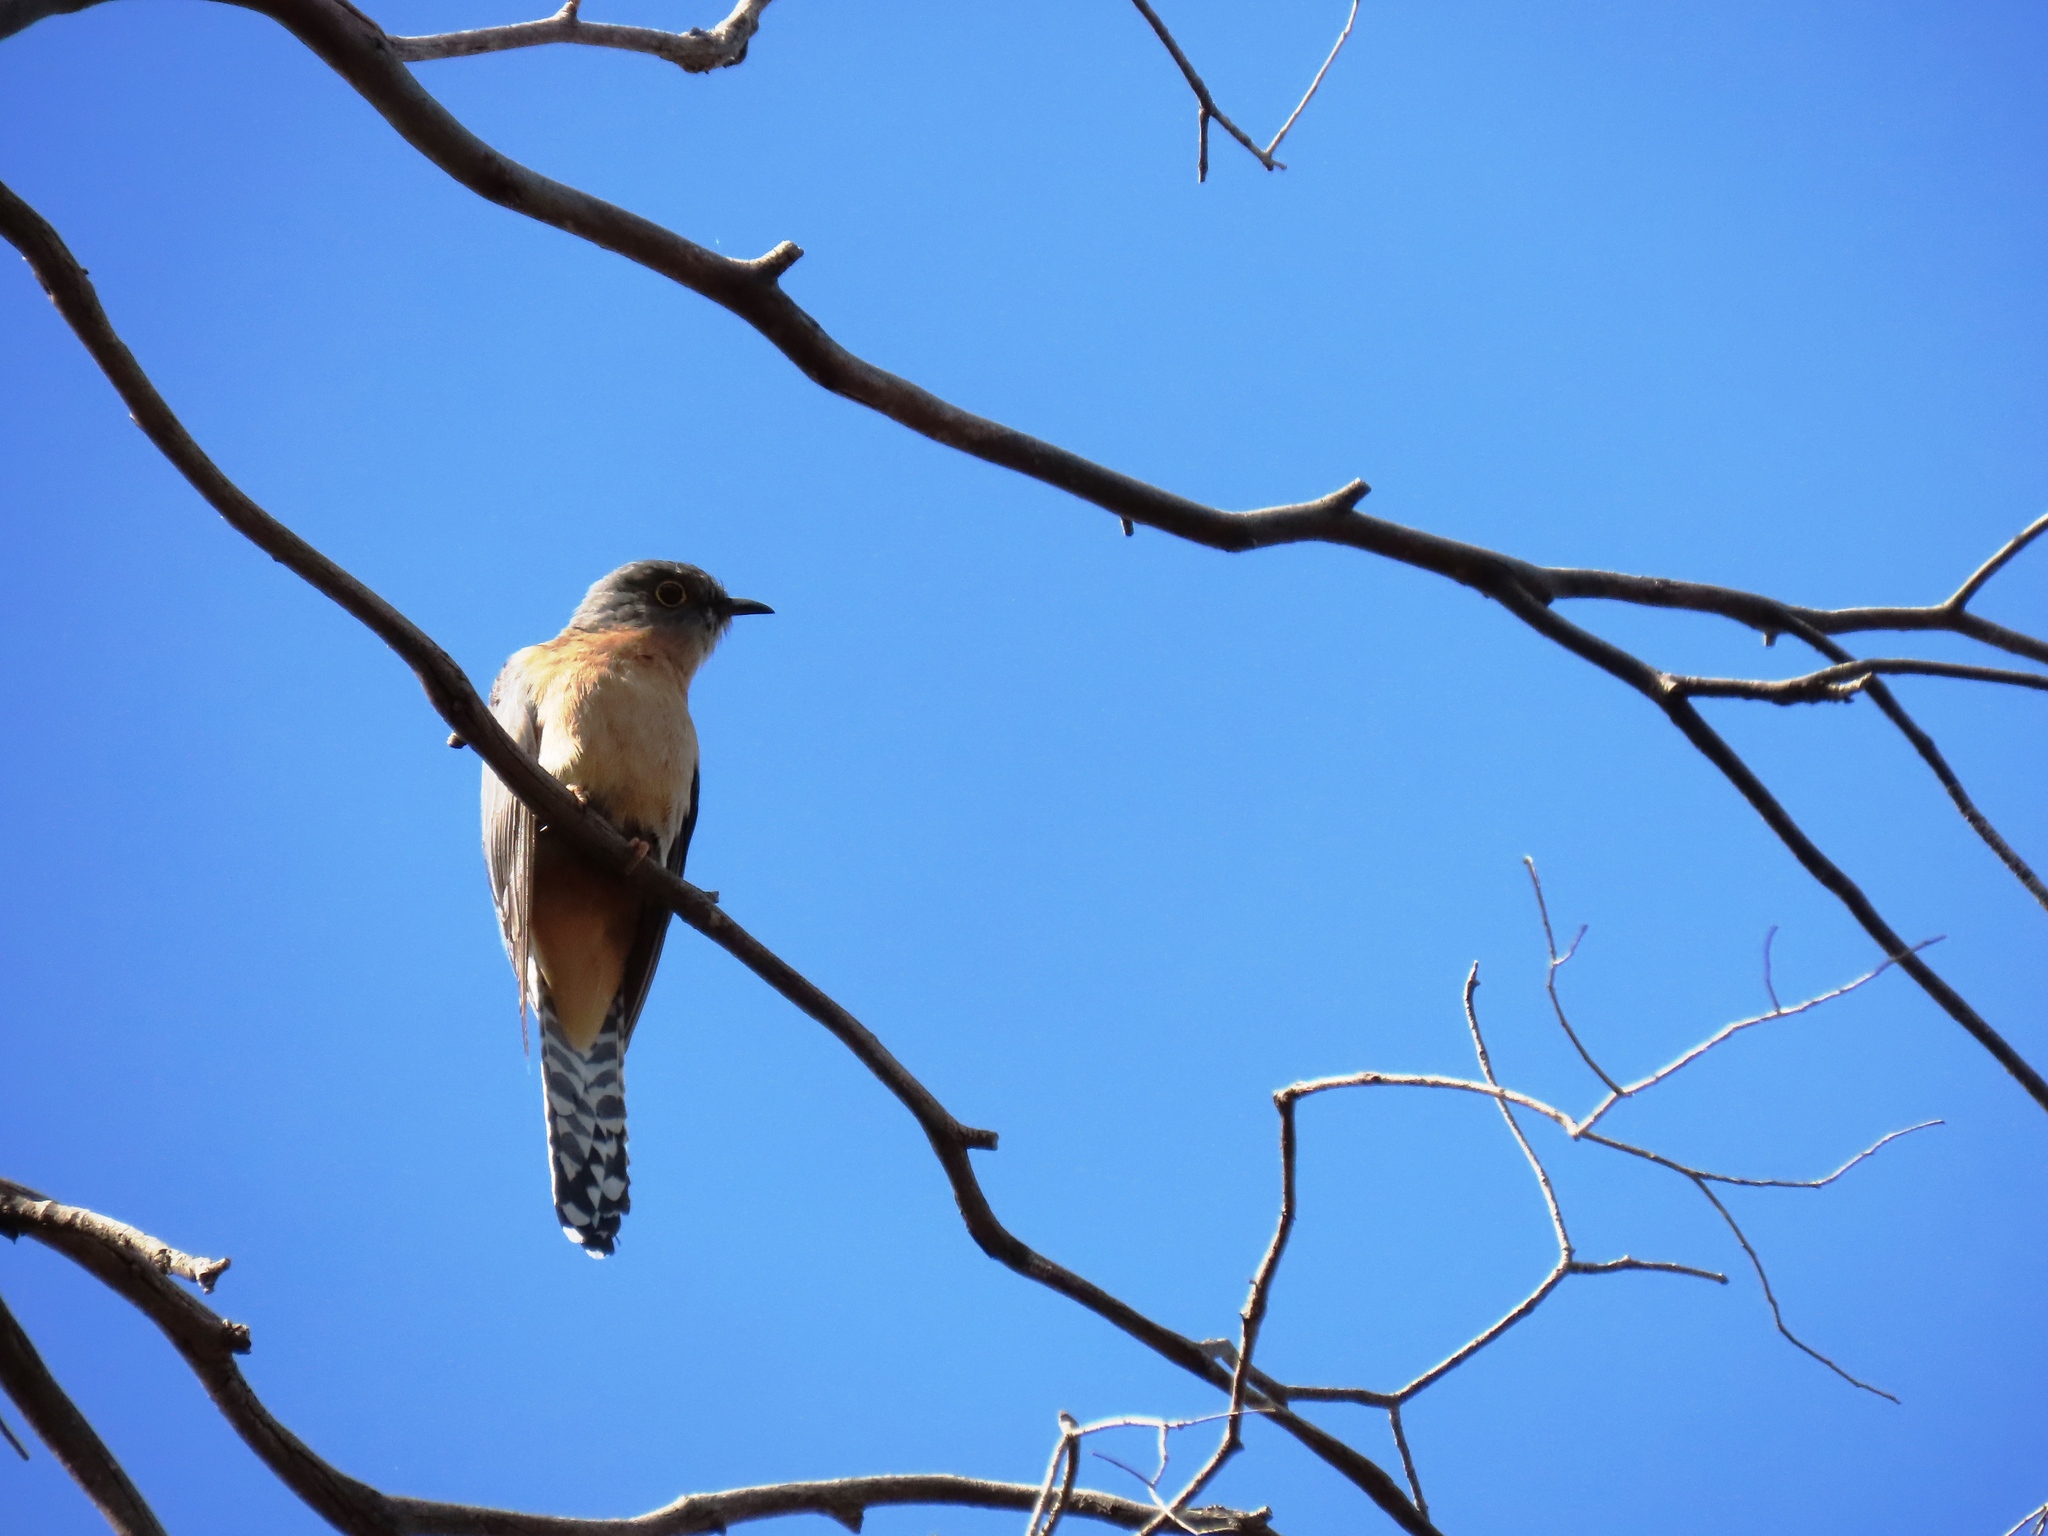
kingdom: Animalia
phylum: Chordata
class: Aves
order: Cuculiformes
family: Cuculidae
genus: Cacomantis
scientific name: Cacomantis flabelliformis
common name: Fan-tailed cuckoo
